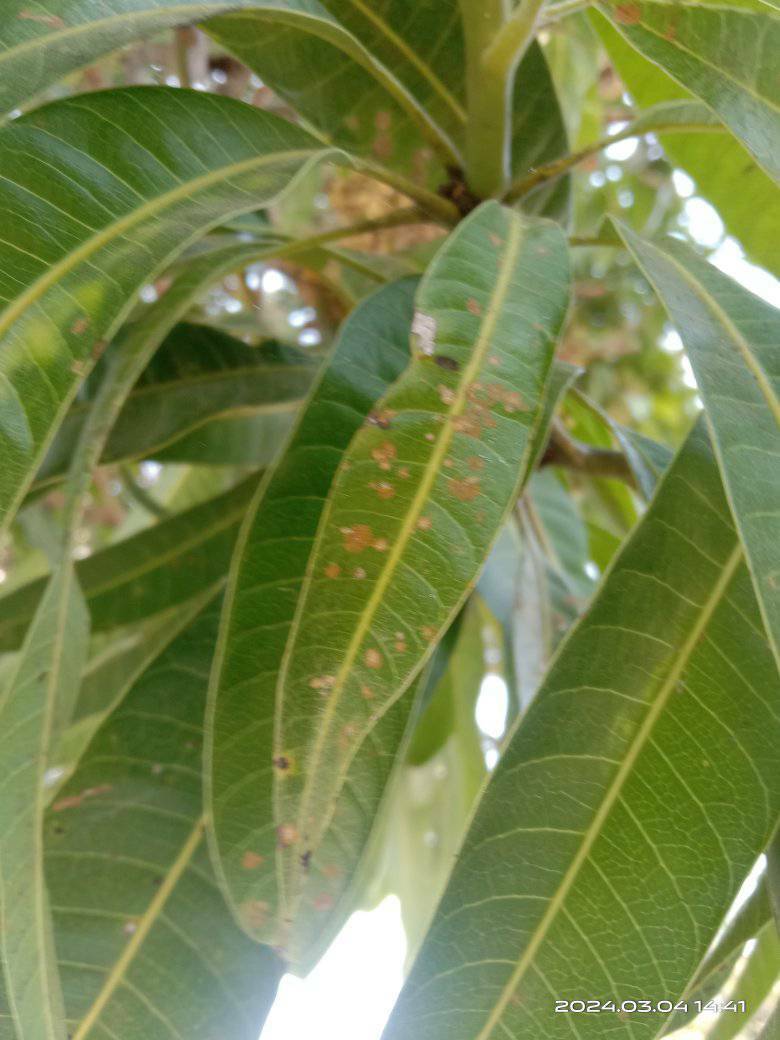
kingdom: Plantae
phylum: Chlorophyta
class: Ulvophyceae
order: Trentepohliales
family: Trentepohliaceae
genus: Cephaleuros
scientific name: Cephaleuros virescens
